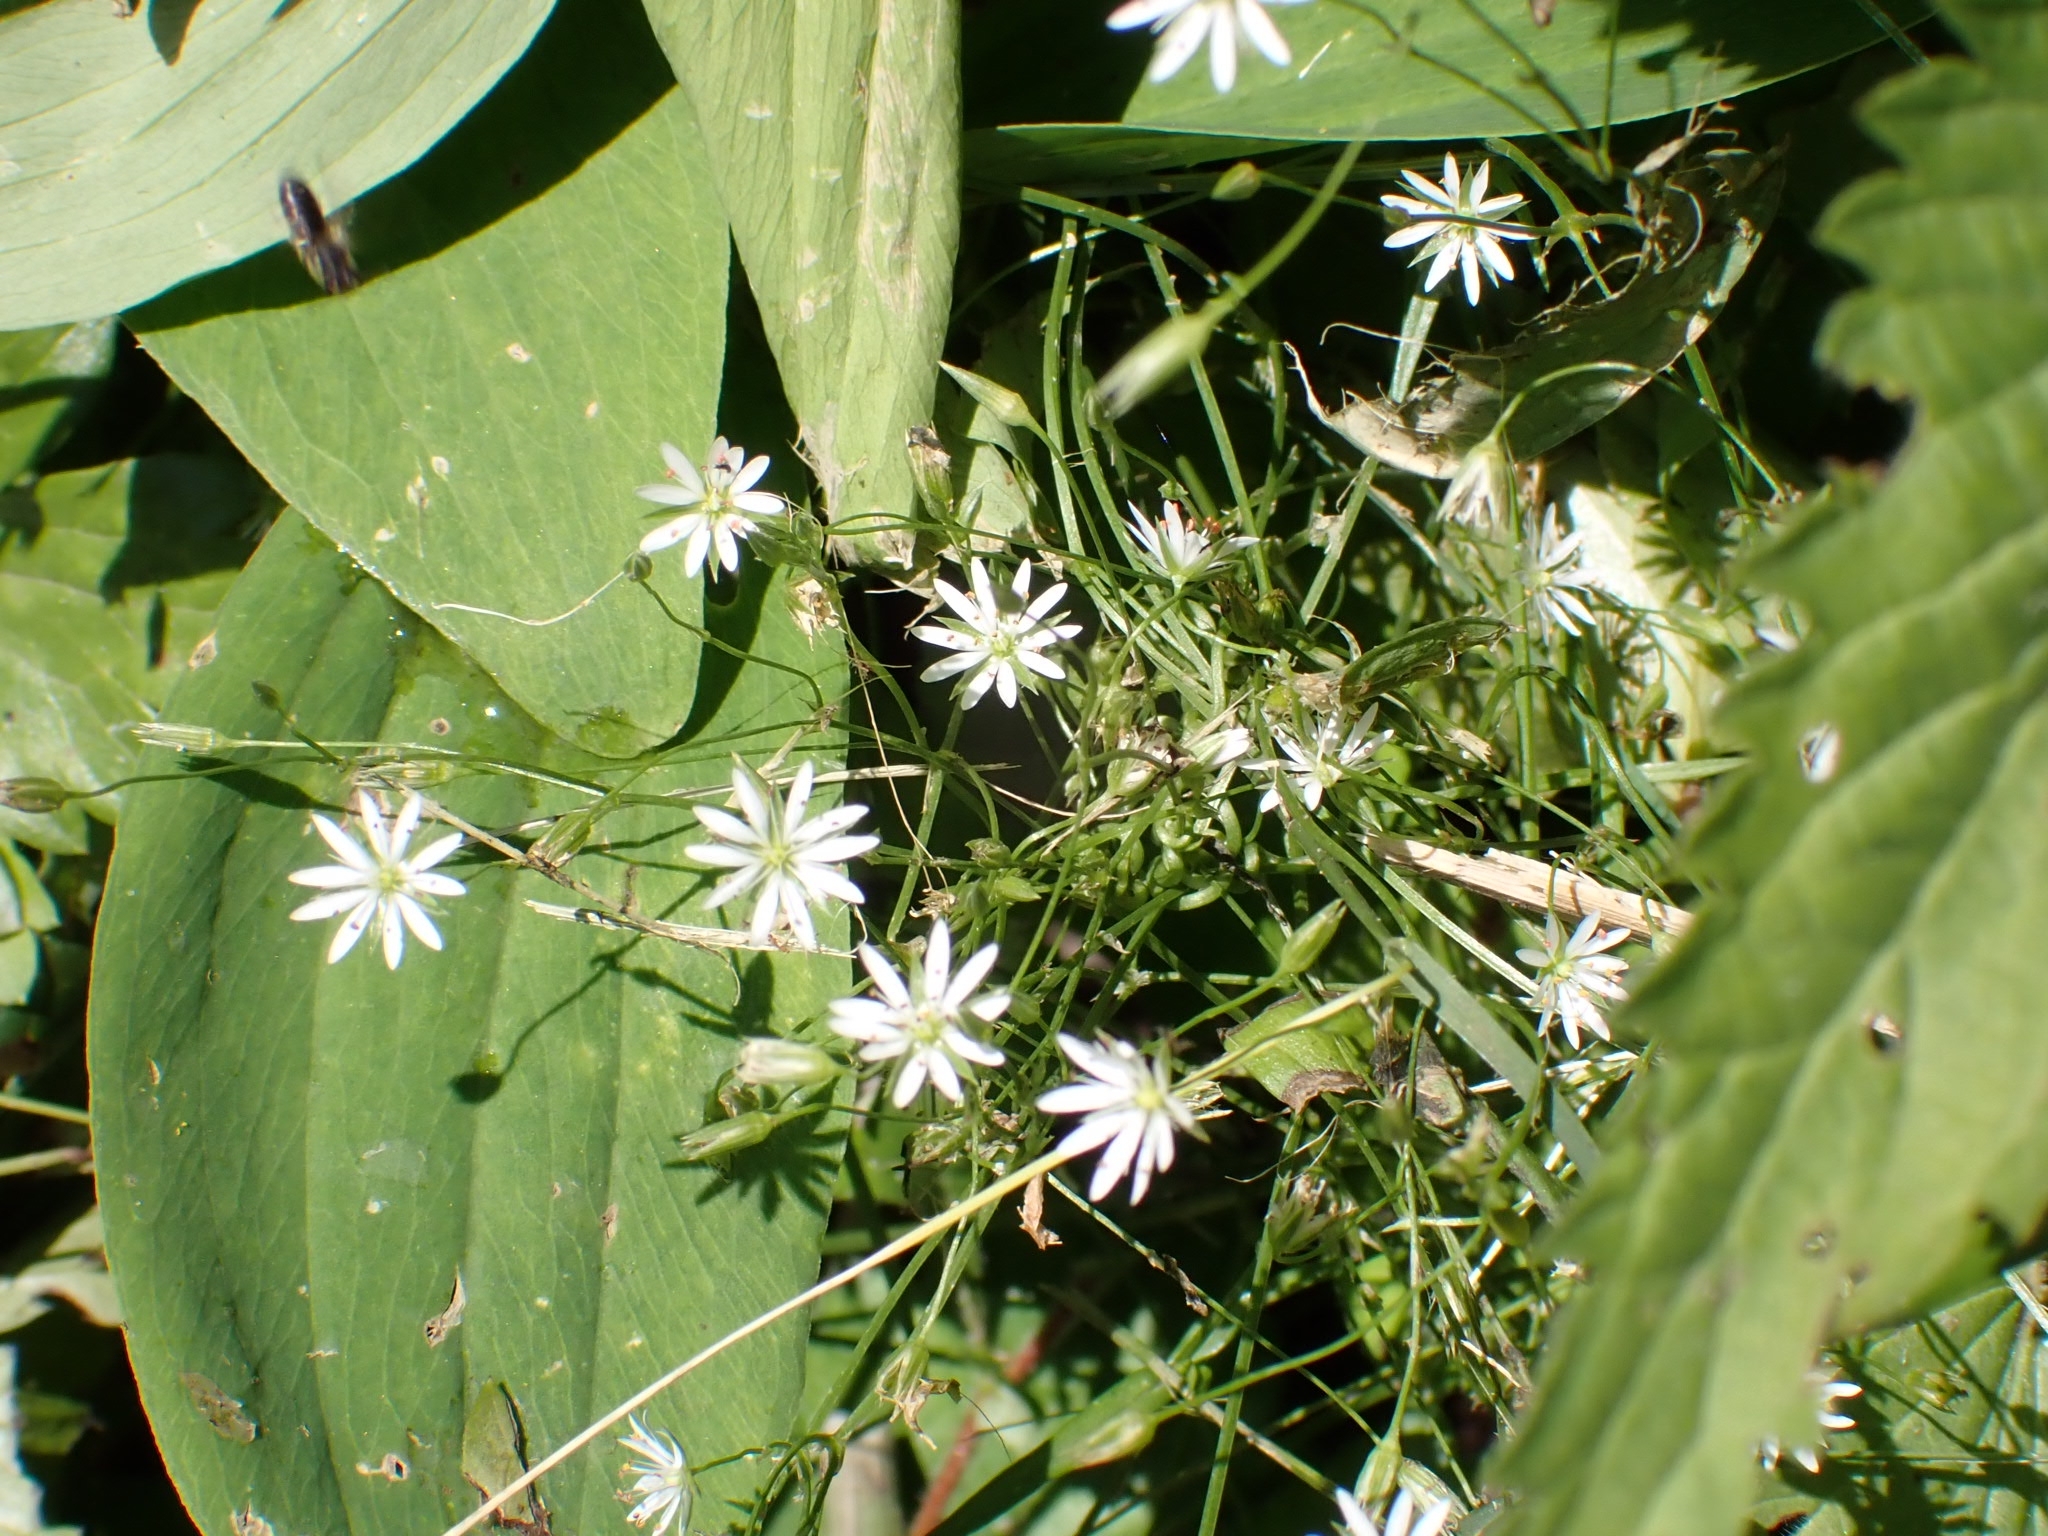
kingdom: Plantae
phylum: Tracheophyta
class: Magnoliopsida
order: Caryophyllales
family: Caryophyllaceae
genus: Stellaria
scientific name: Stellaria graminea
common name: Grass-like starwort
